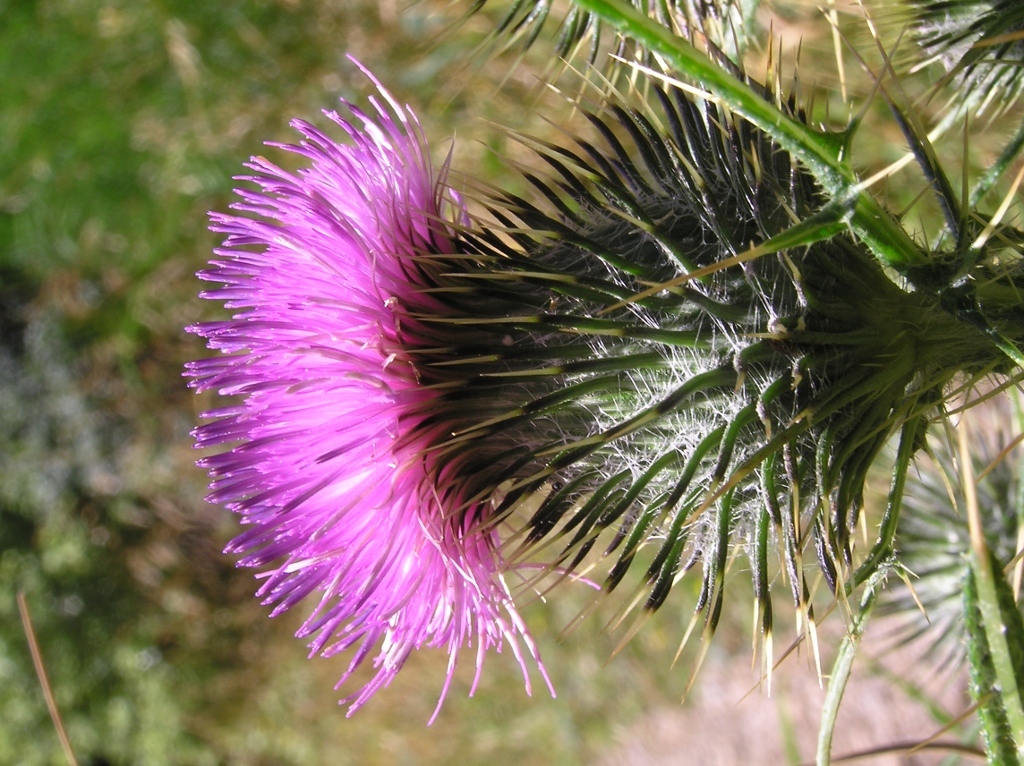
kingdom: Animalia
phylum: Arthropoda
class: Insecta
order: Hymenoptera
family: Apidae
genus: Bombus
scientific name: Bombus ruderatus
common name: Large garden bumblebee
